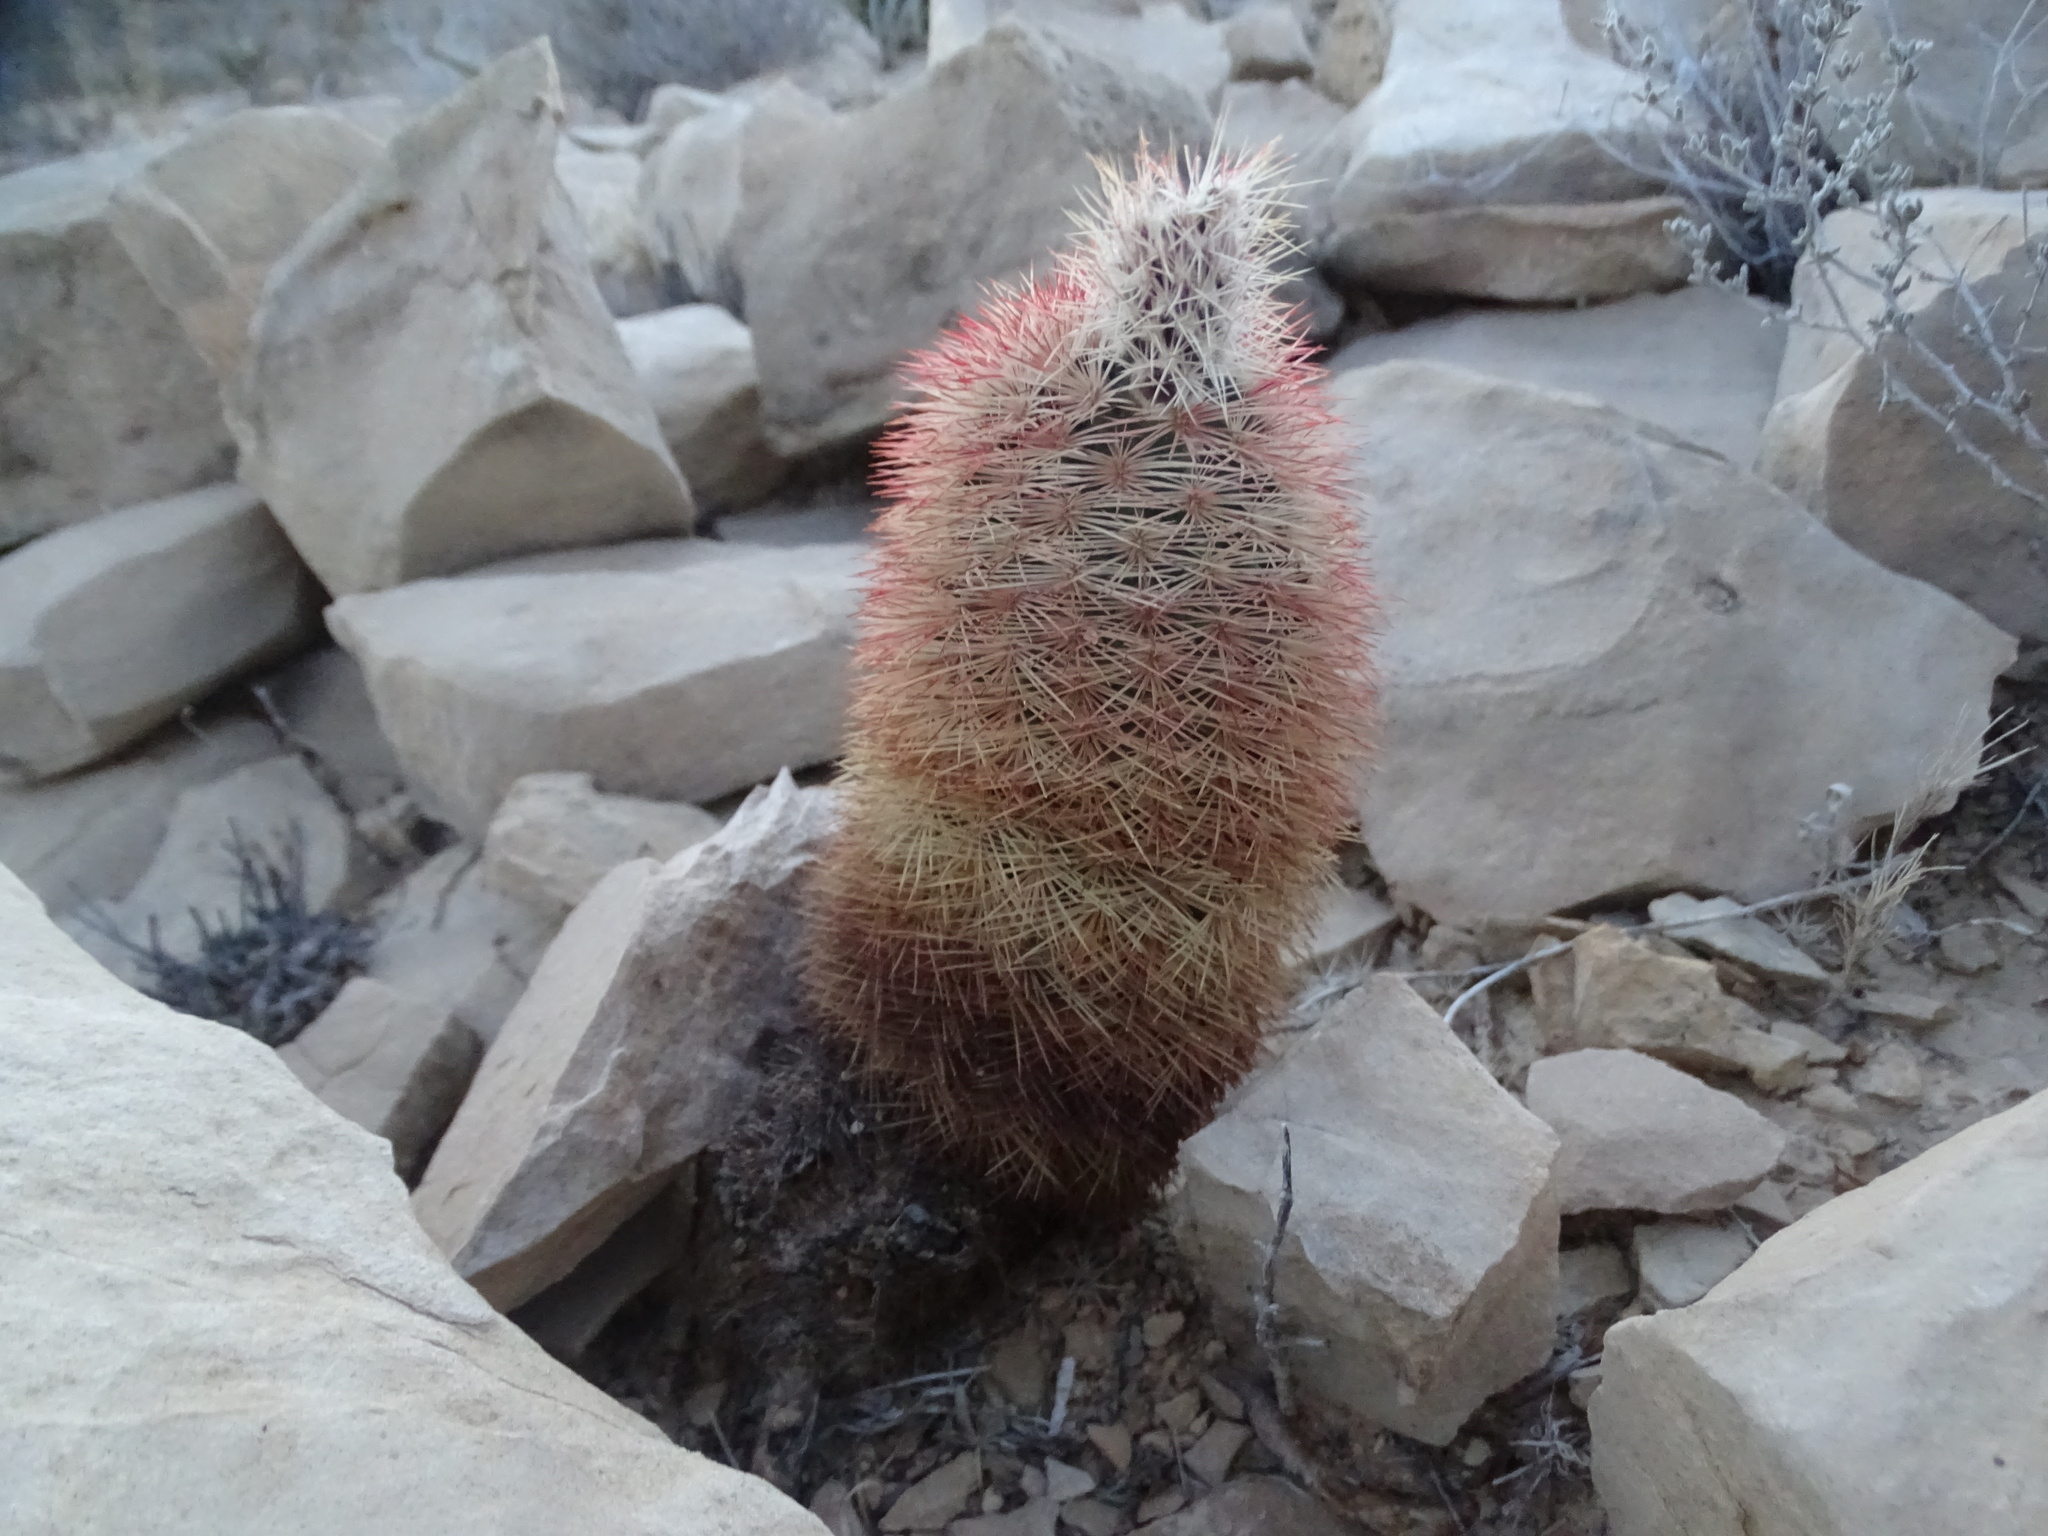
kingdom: Plantae
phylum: Tracheophyta
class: Magnoliopsida
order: Caryophyllales
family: Cactaceae
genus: Echinocereus
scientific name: Echinocereus dasyacanthus
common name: Spiny hedgehog cactus
